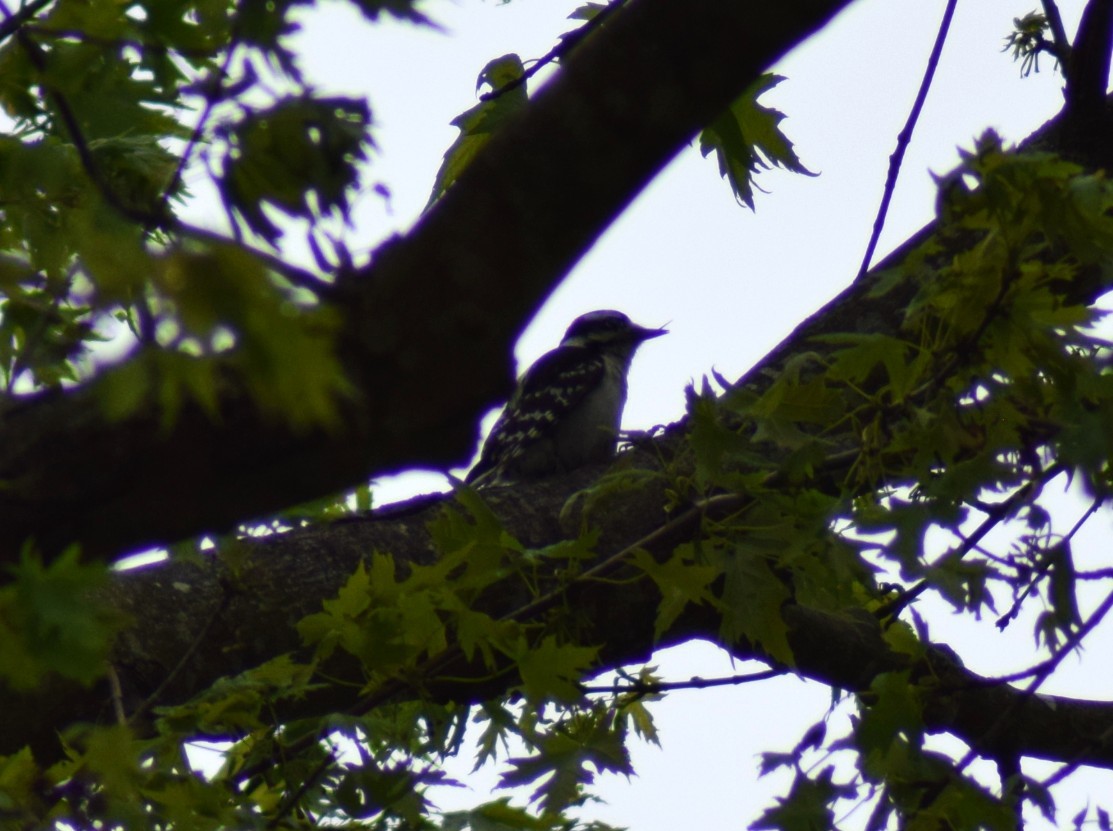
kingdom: Animalia
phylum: Chordata
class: Aves
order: Piciformes
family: Picidae
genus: Dryobates
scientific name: Dryobates pubescens
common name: Downy woodpecker
